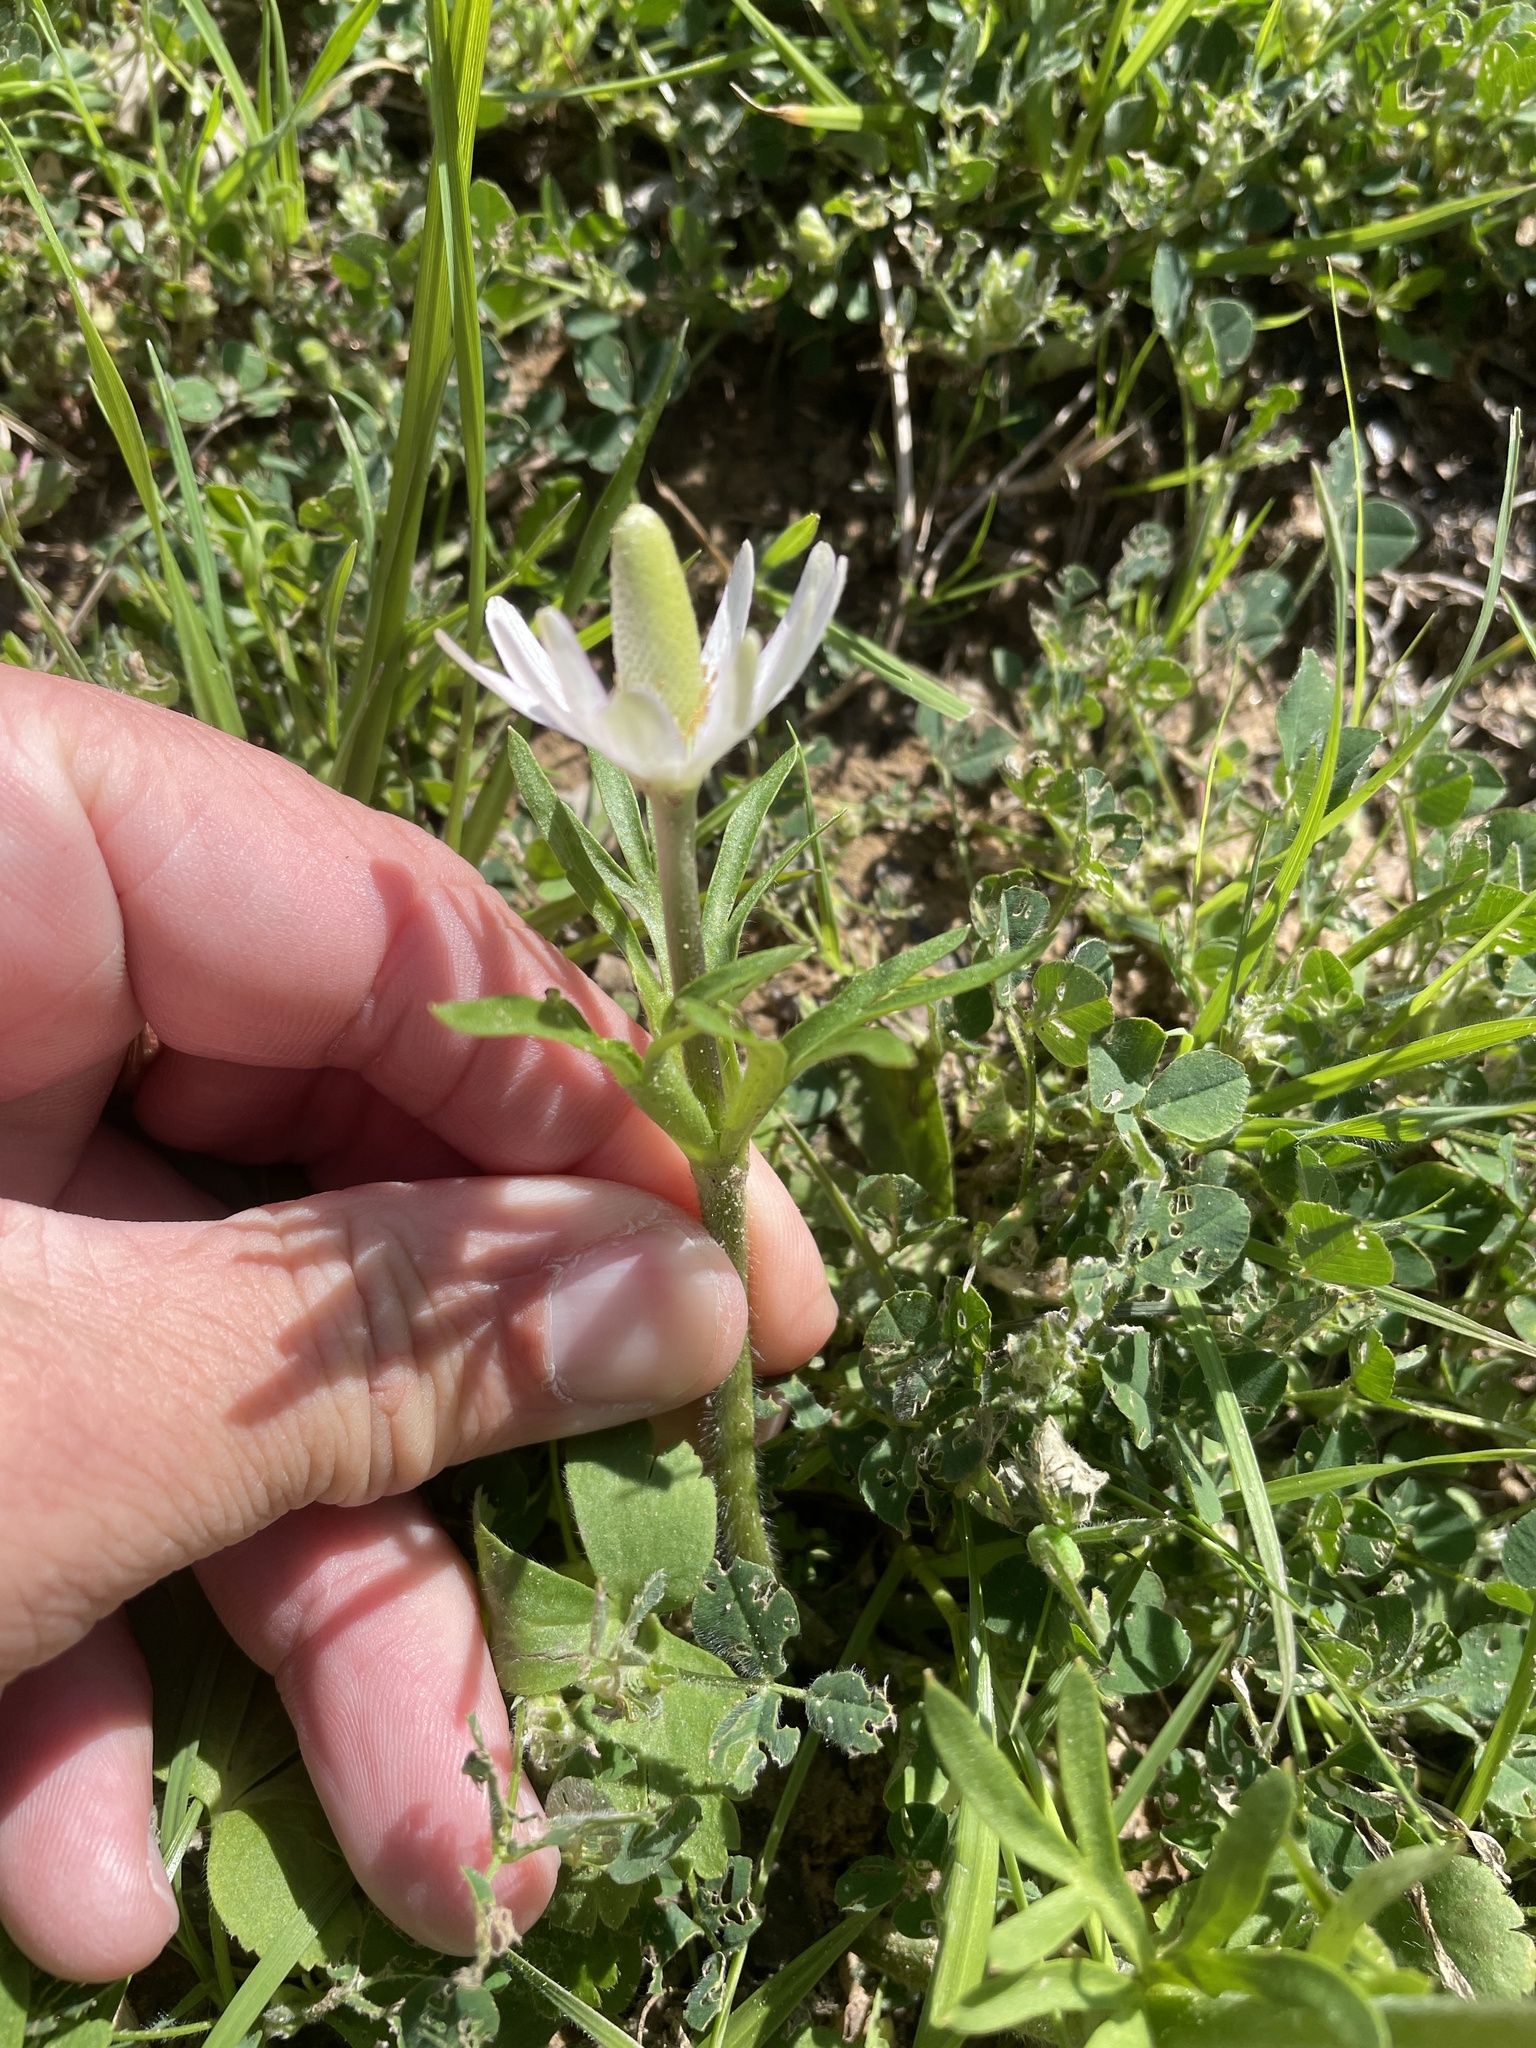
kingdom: Plantae
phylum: Tracheophyta
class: Magnoliopsida
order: Ranunculales
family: Ranunculaceae
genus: Anemone
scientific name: Anemone berlandieri
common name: Ten-petal anemone
